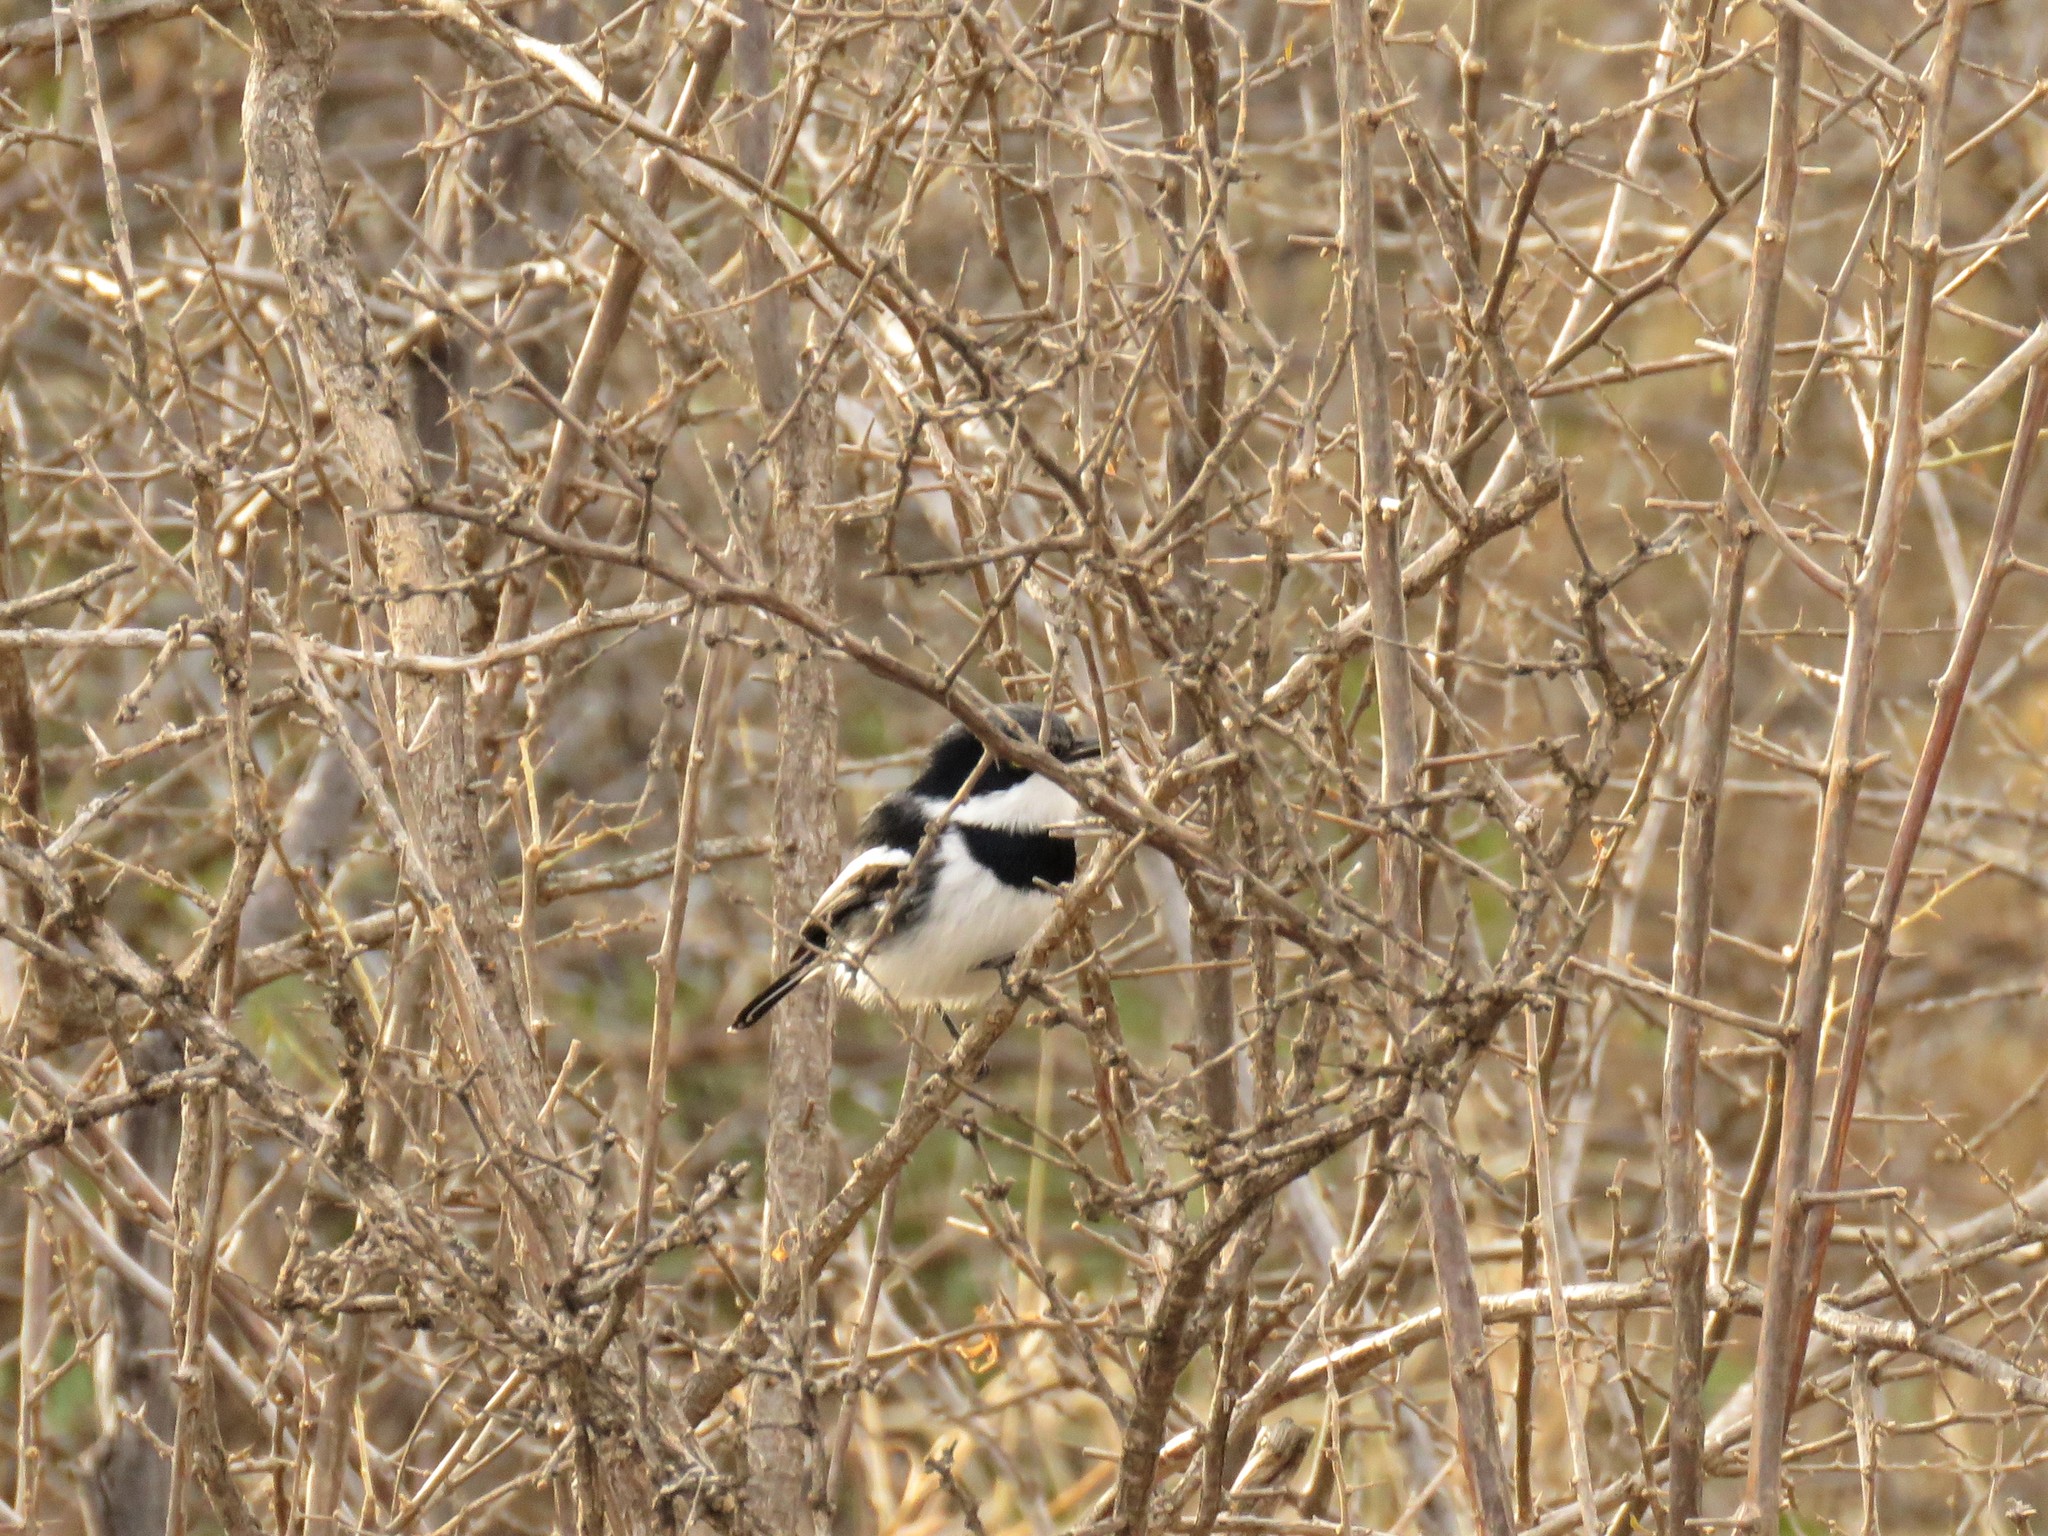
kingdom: Animalia
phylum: Chordata
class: Aves
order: Passeriformes
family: Platysteiridae
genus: Batis
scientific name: Batis pririt
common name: Pririt batis
